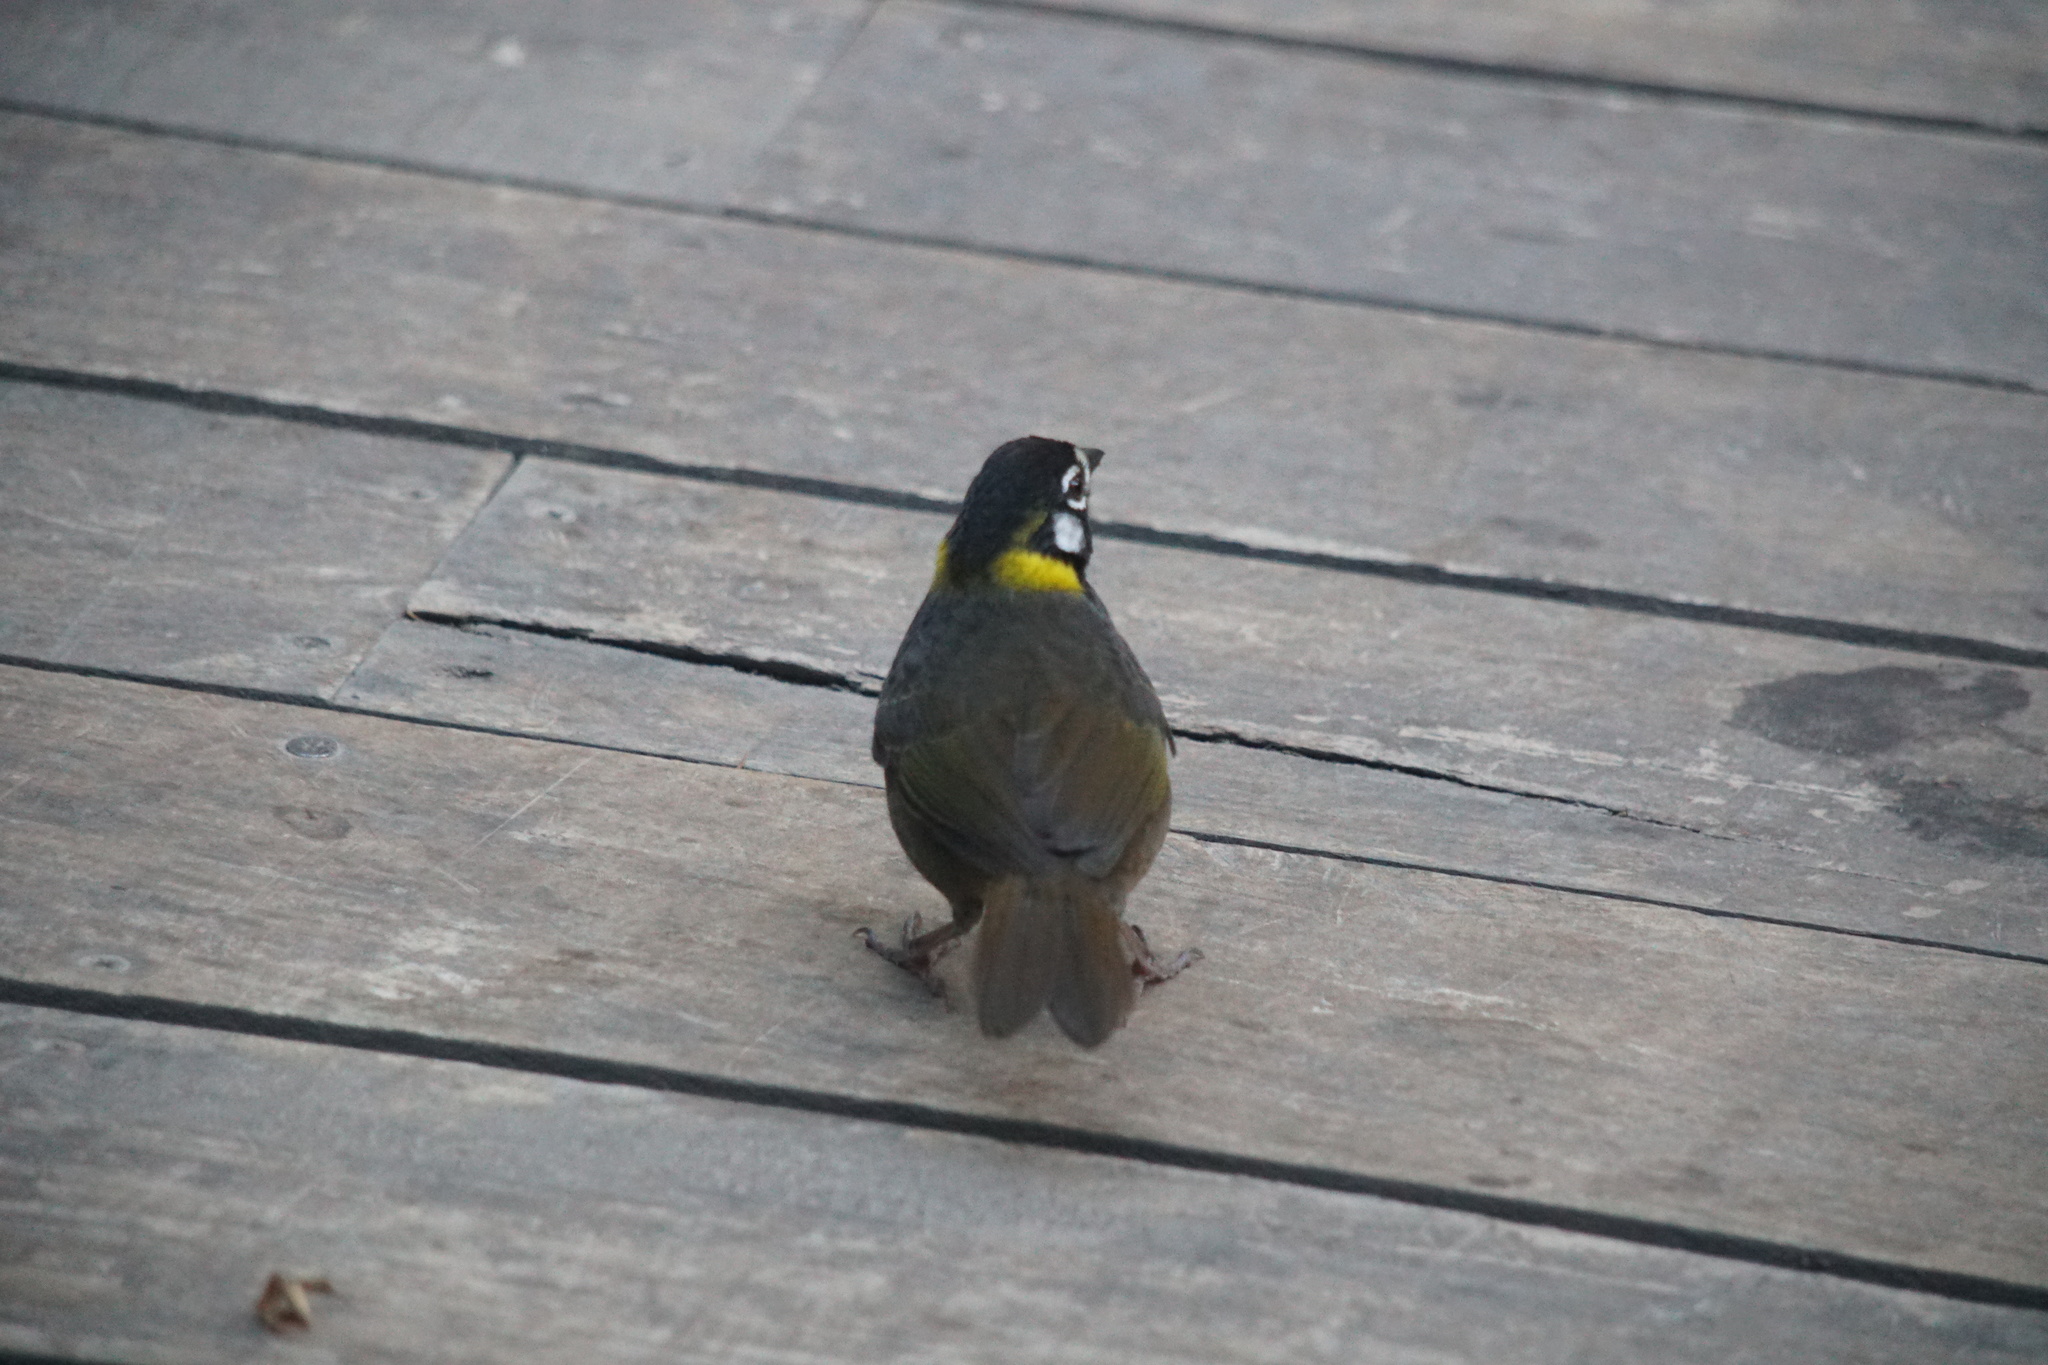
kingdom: Animalia
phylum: Chordata
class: Aves
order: Passeriformes
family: Passerellidae
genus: Melozone
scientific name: Melozone leucotis
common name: White-eared ground-sparrow
